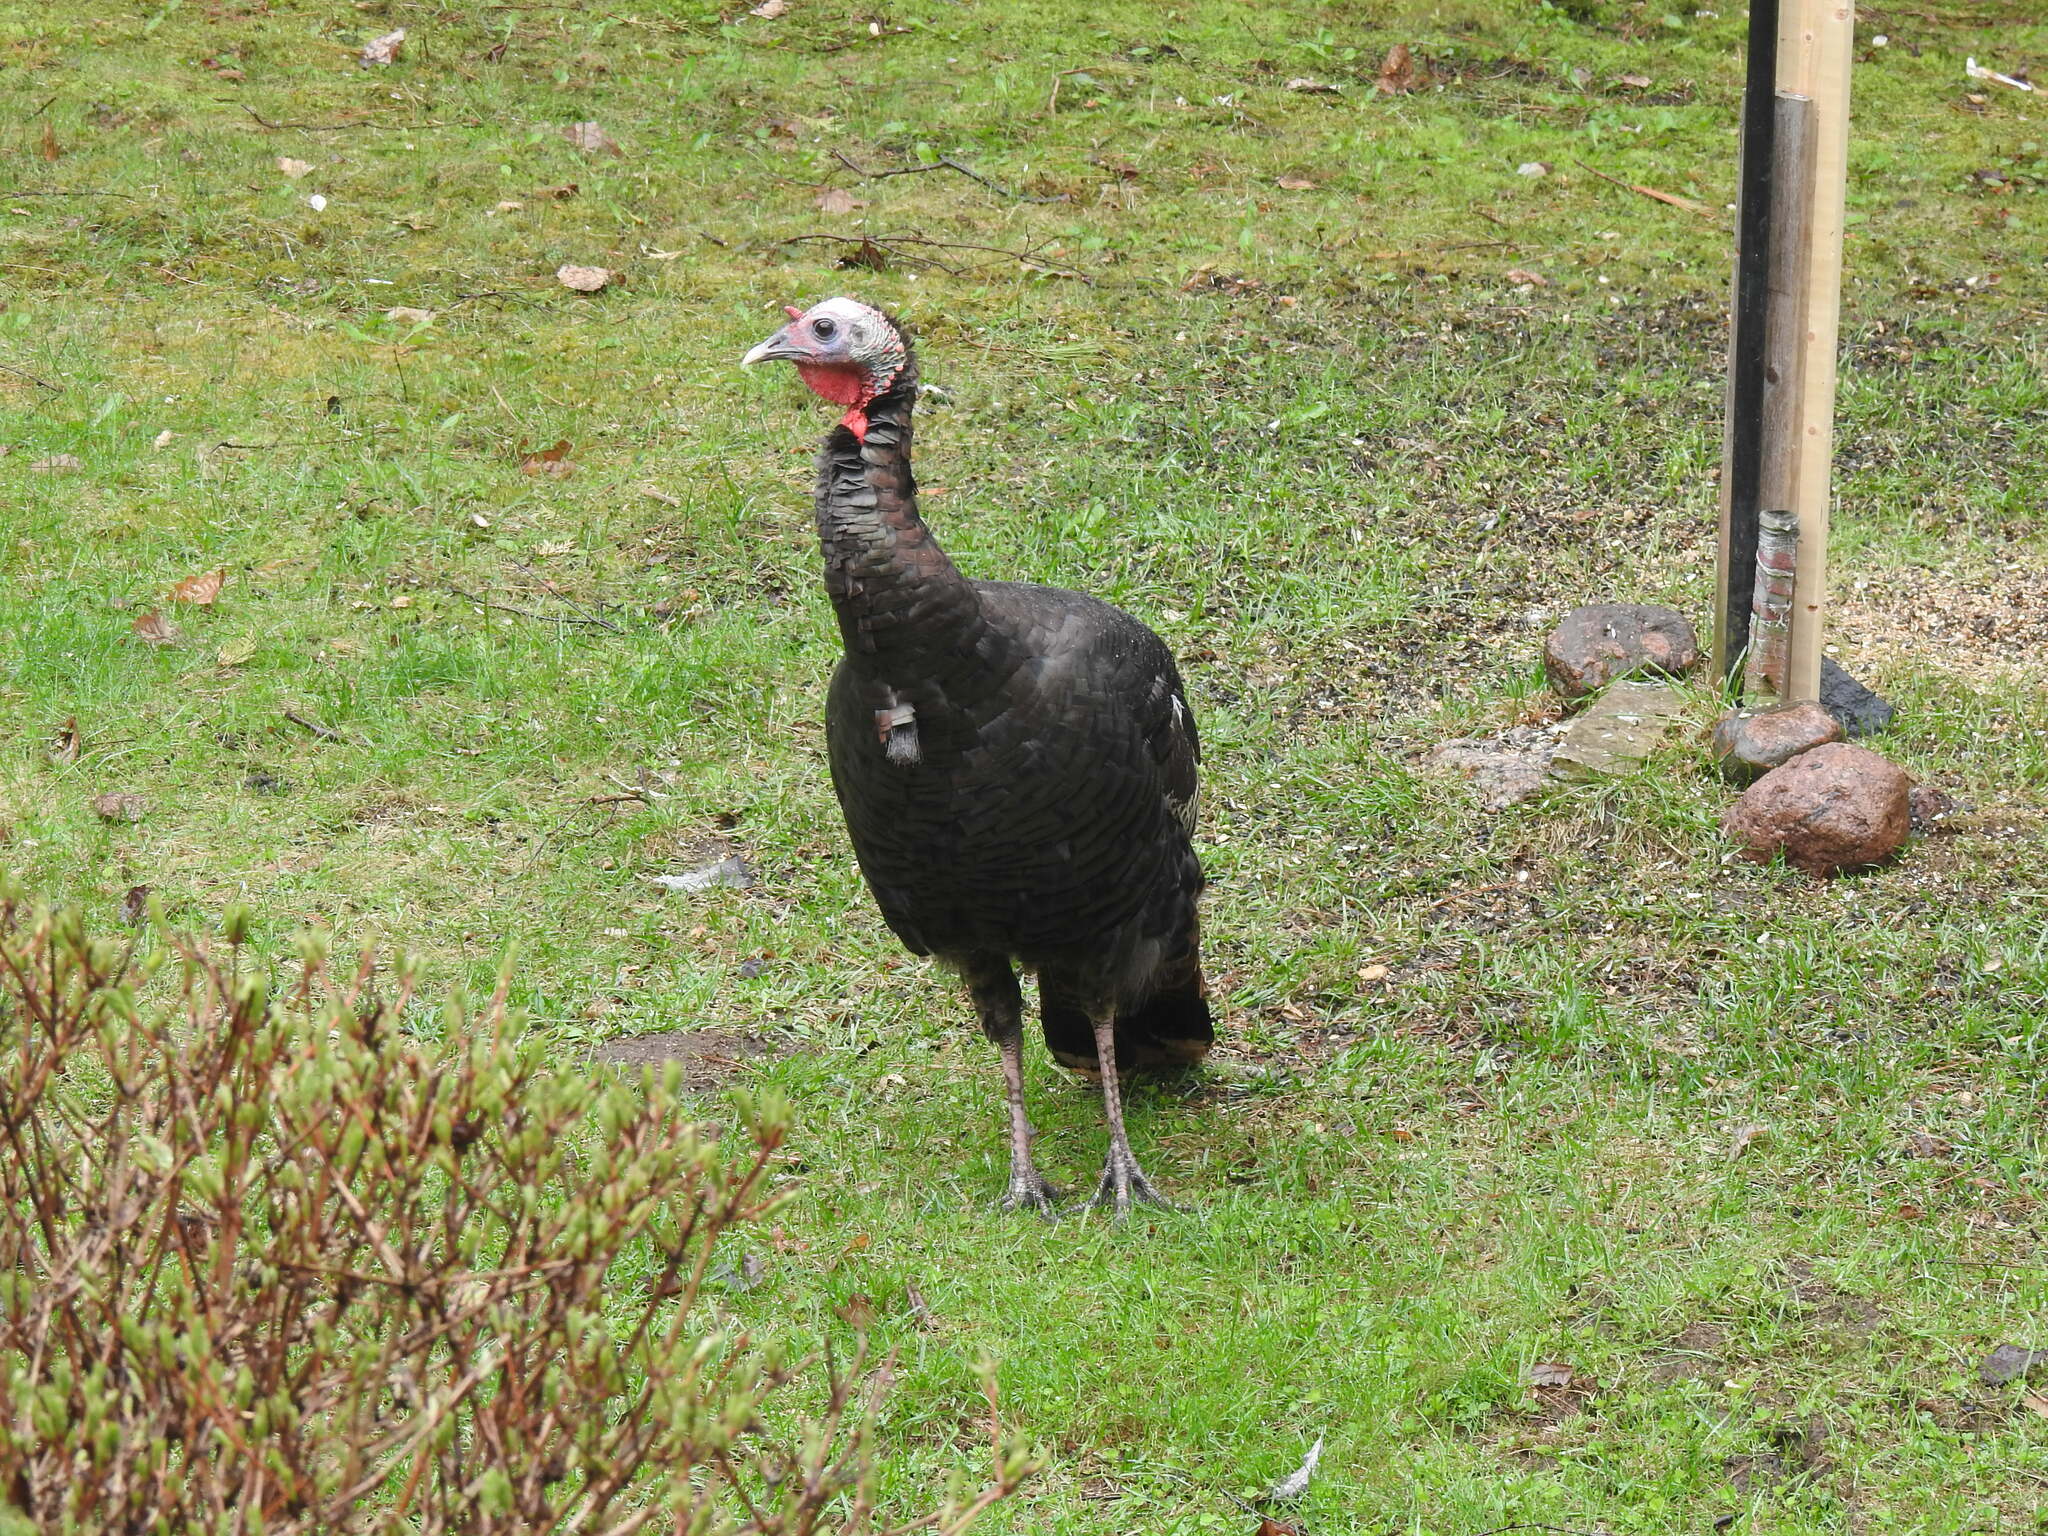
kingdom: Animalia
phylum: Chordata
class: Aves
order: Galliformes
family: Phasianidae
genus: Meleagris
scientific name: Meleagris gallopavo
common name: Wild turkey
